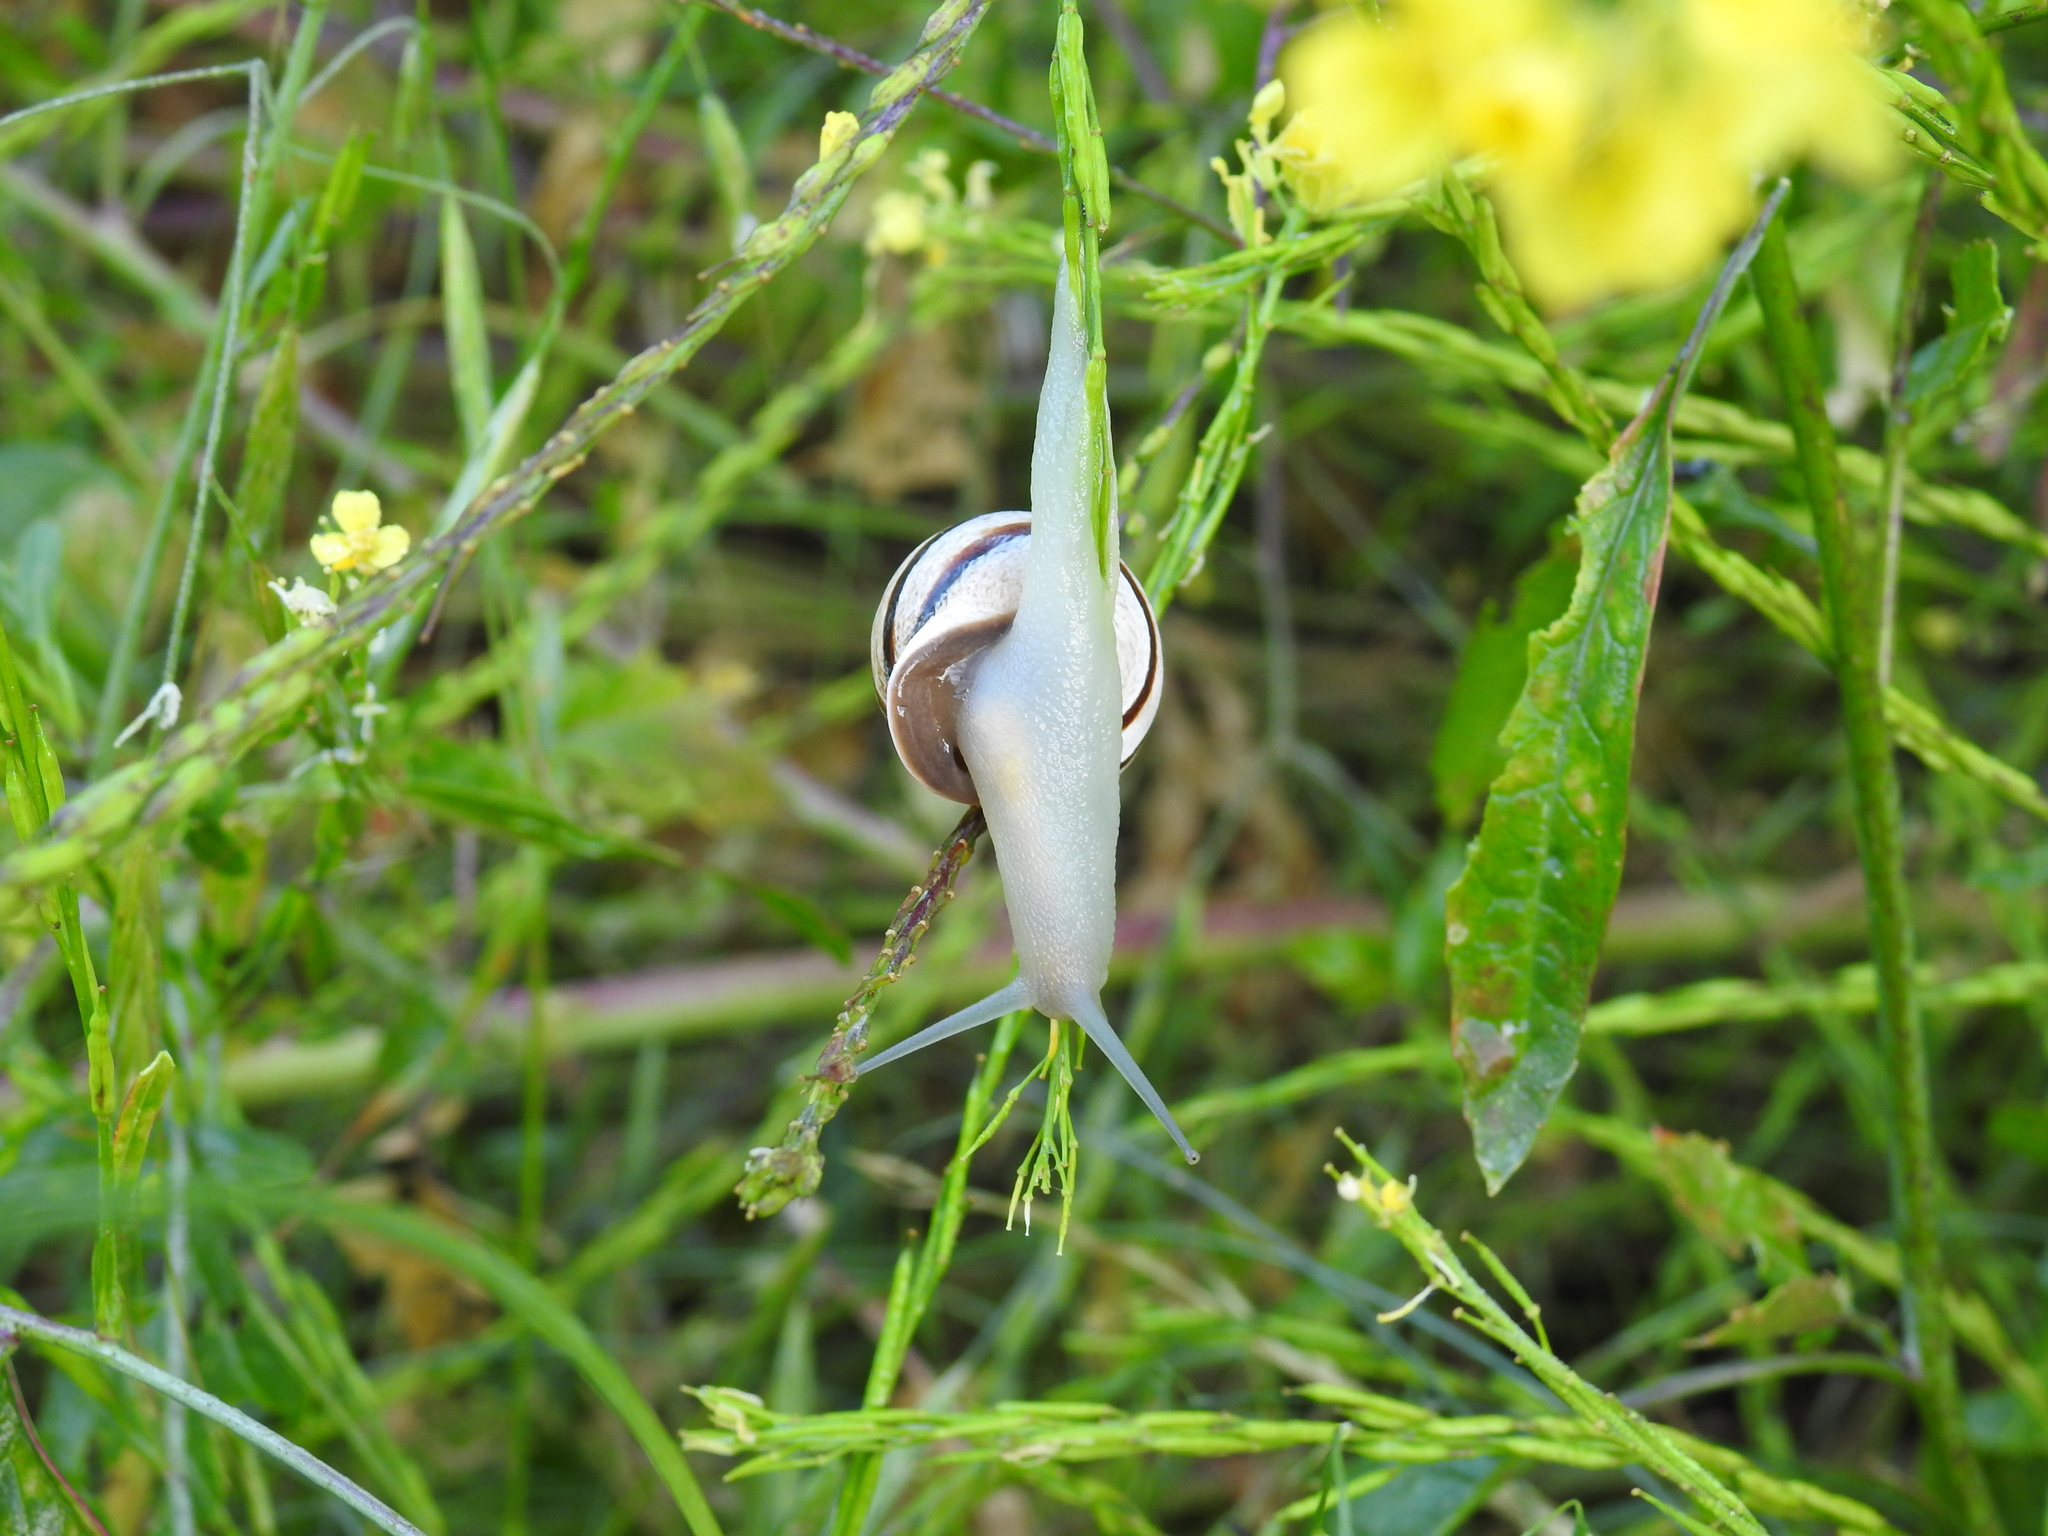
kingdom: Animalia
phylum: Mollusca
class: Gastropoda
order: Stylommatophora
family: Helicidae
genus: Otala
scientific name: Otala lactea
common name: Milk snail
